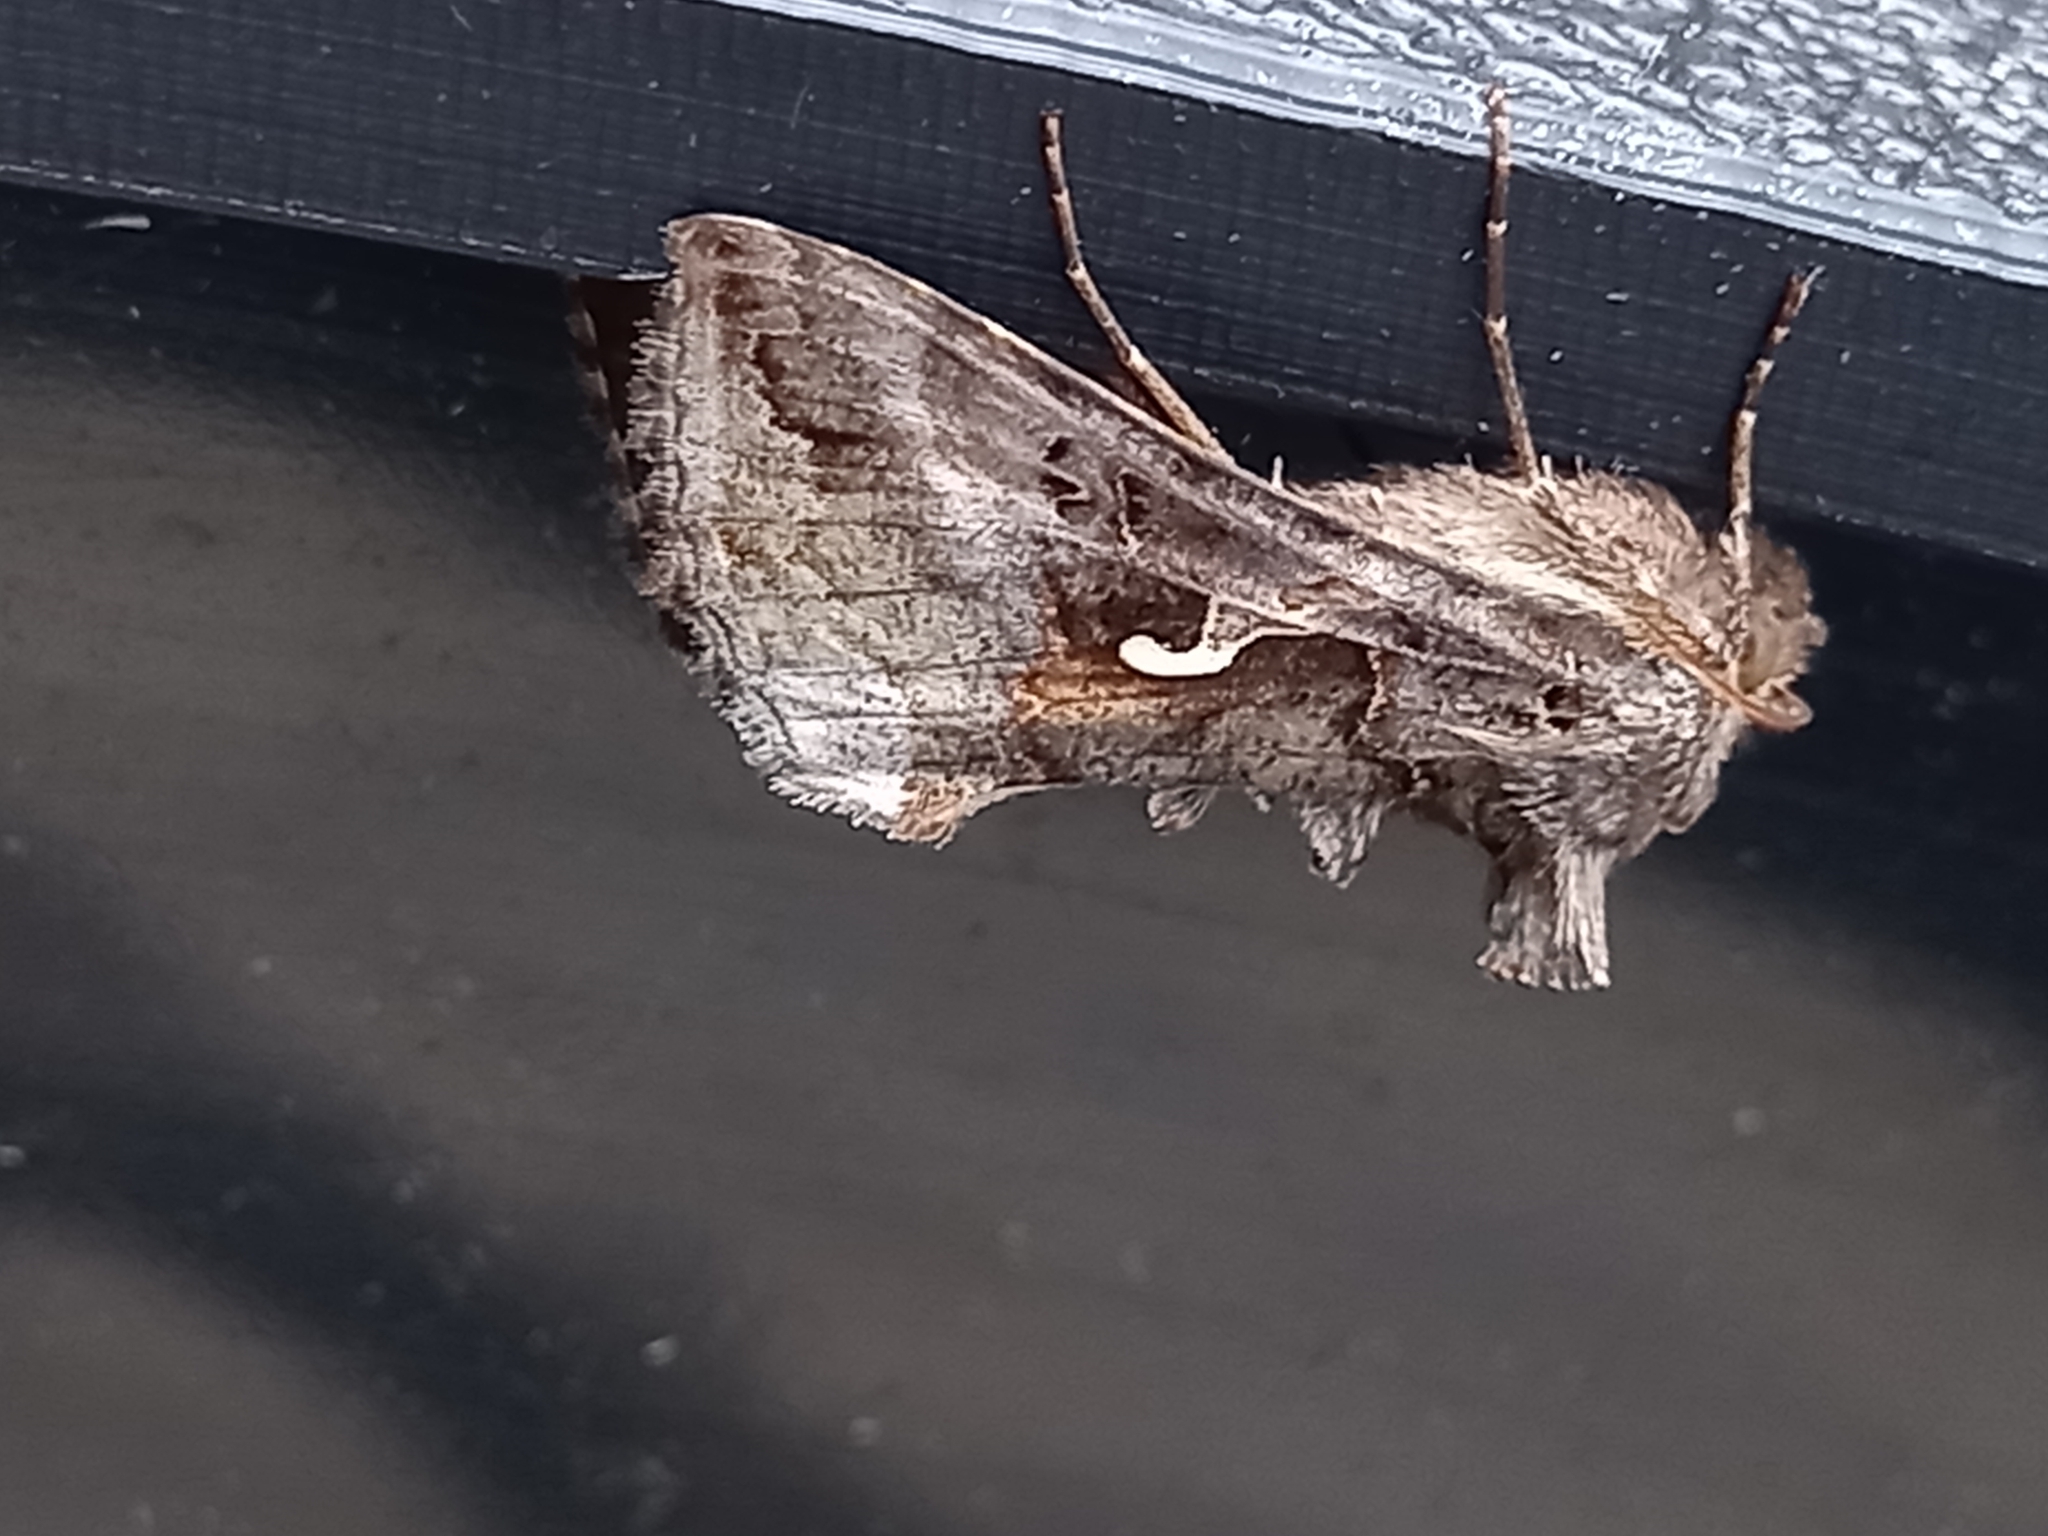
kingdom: Animalia
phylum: Arthropoda
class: Insecta
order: Lepidoptera
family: Noctuidae
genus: Autographa
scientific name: Autographa gamma
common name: Silver y
